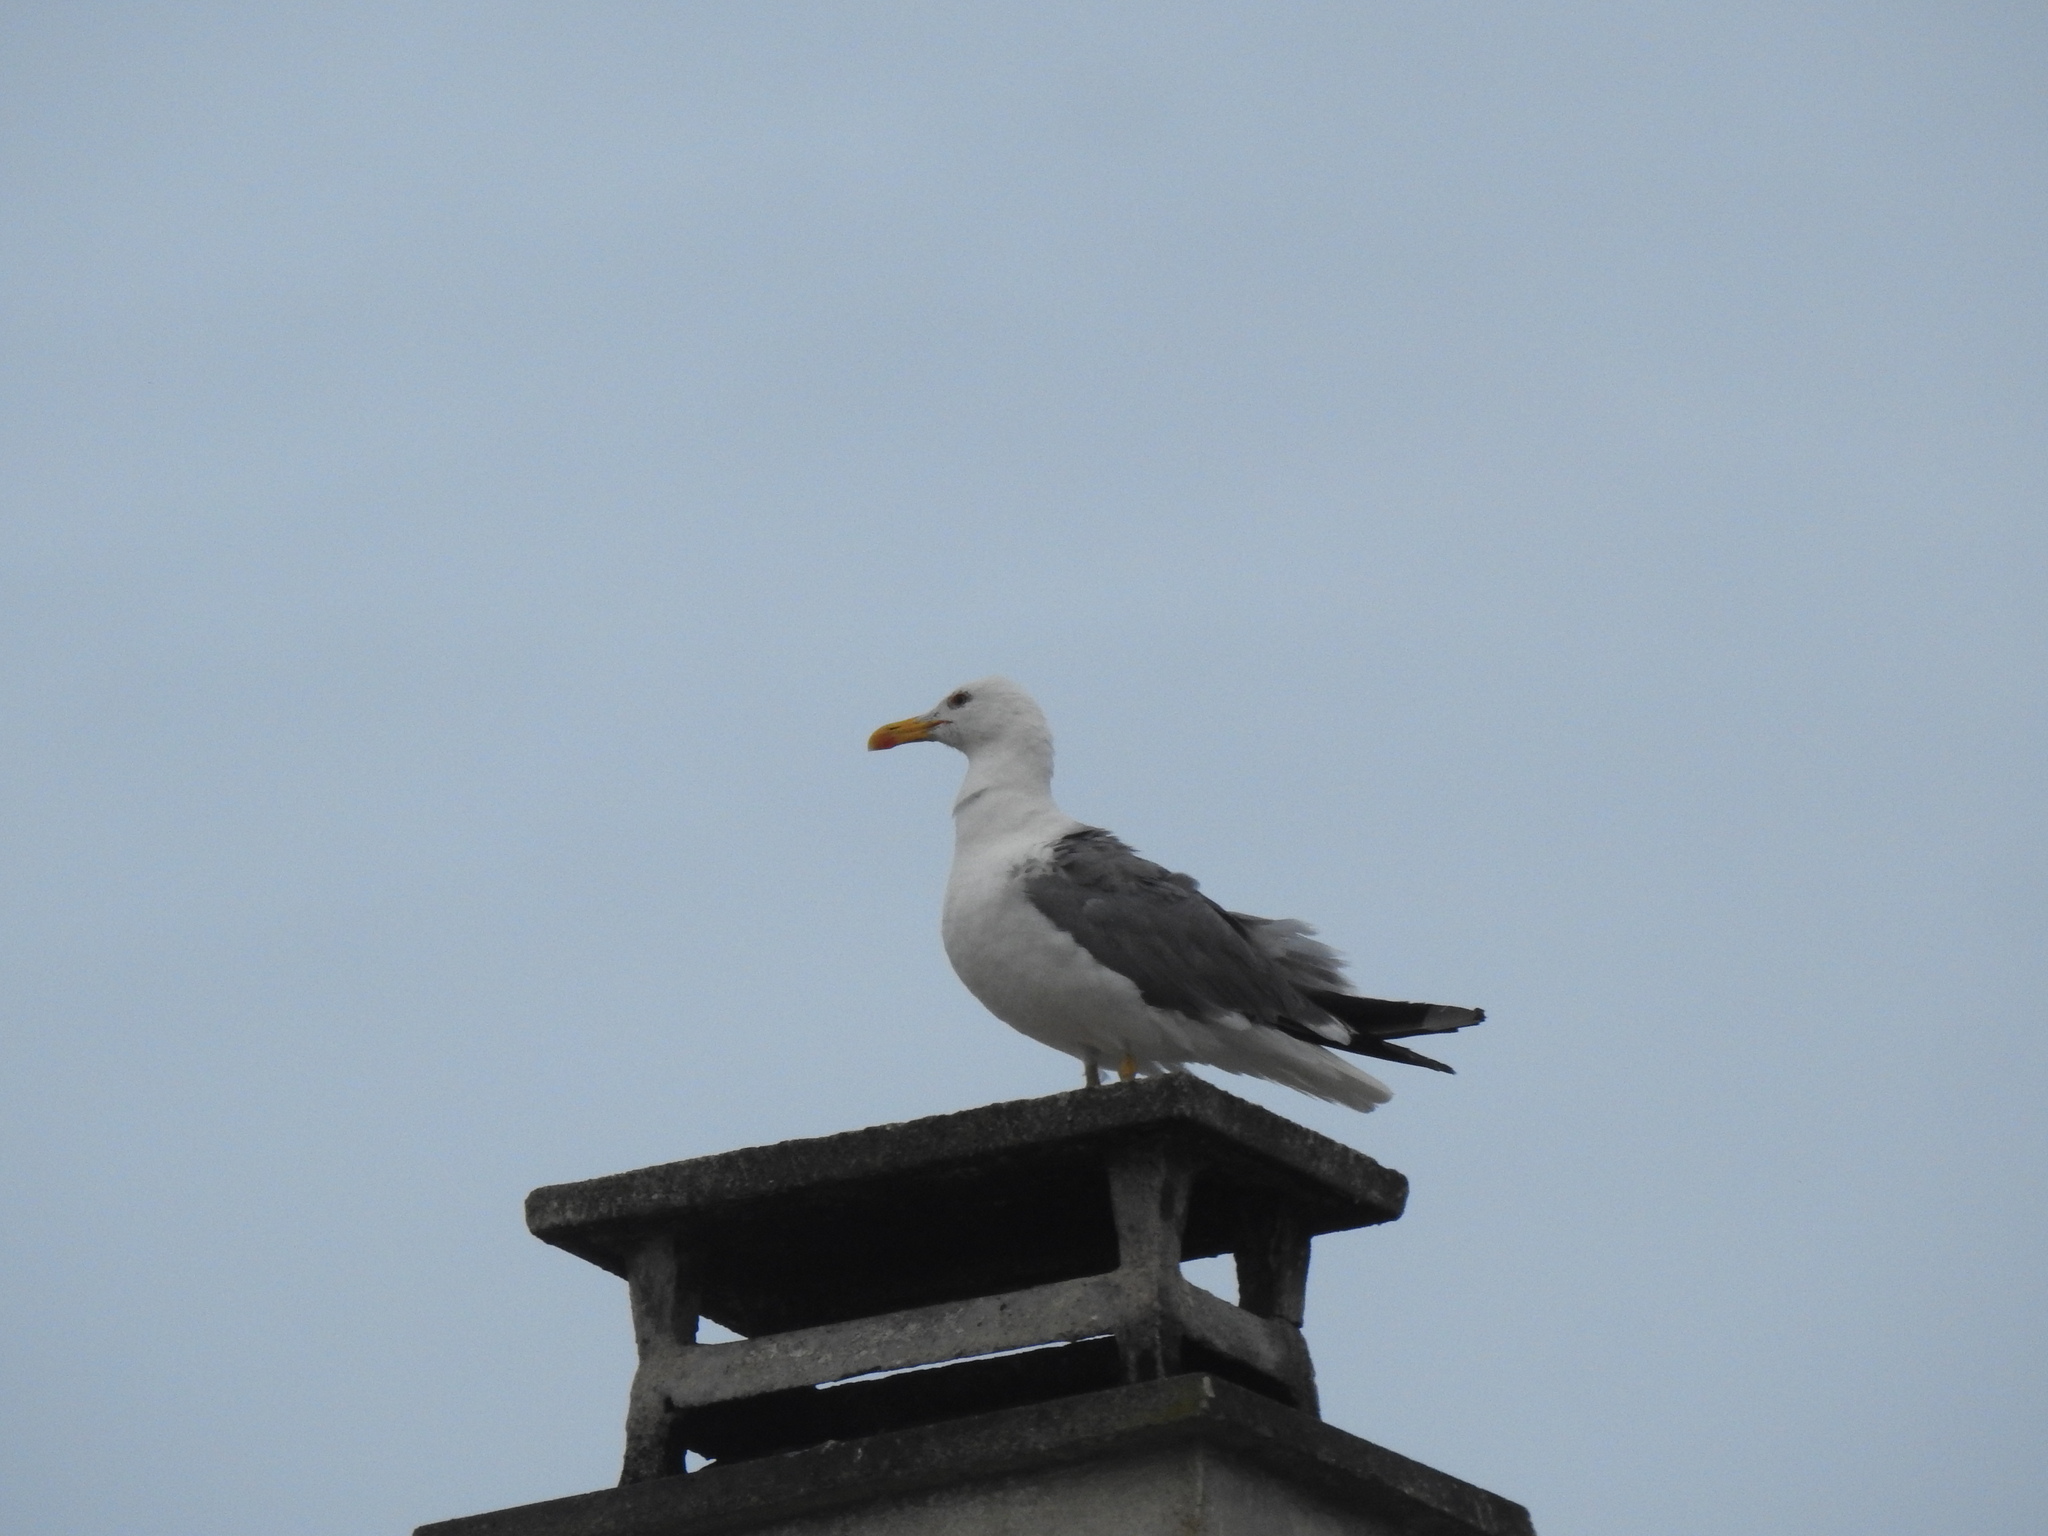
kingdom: Animalia
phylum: Chordata
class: Aves
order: Charadriiformes
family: Laridae
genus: Larus
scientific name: Larus michahellis
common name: Yellow-legged gull
